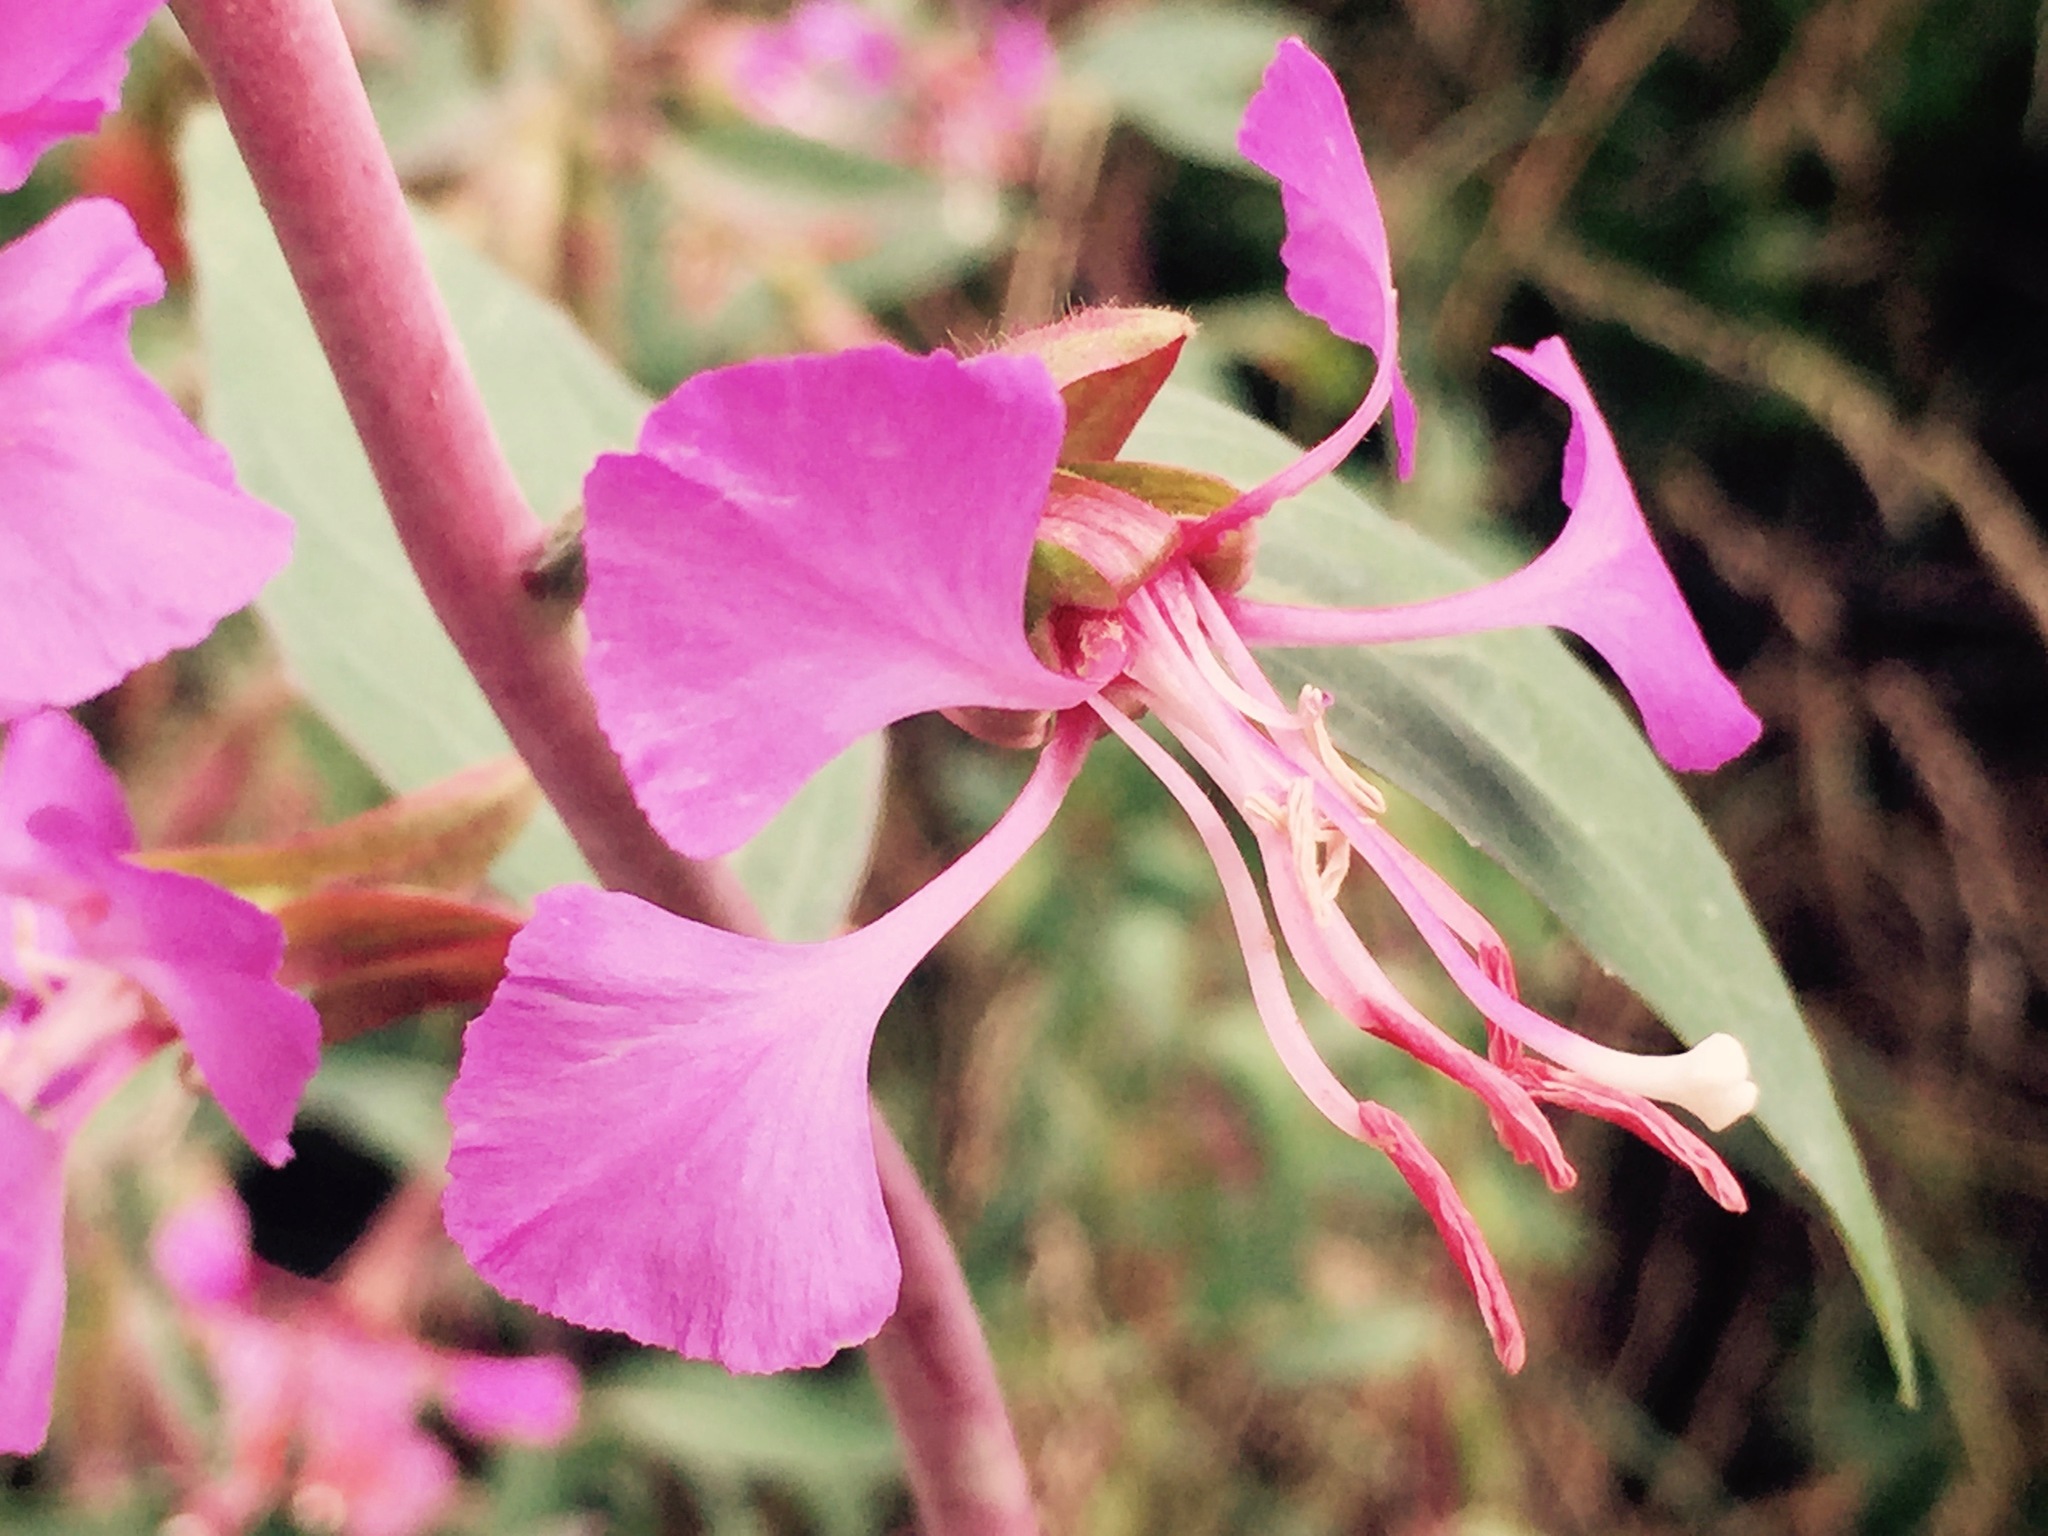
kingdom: Plantae
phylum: Tracheophyta
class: Magnoliopsida
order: Myrtales
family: Onagraceae
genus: Clarkia
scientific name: Clarkia unguiculata
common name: Clarkia
